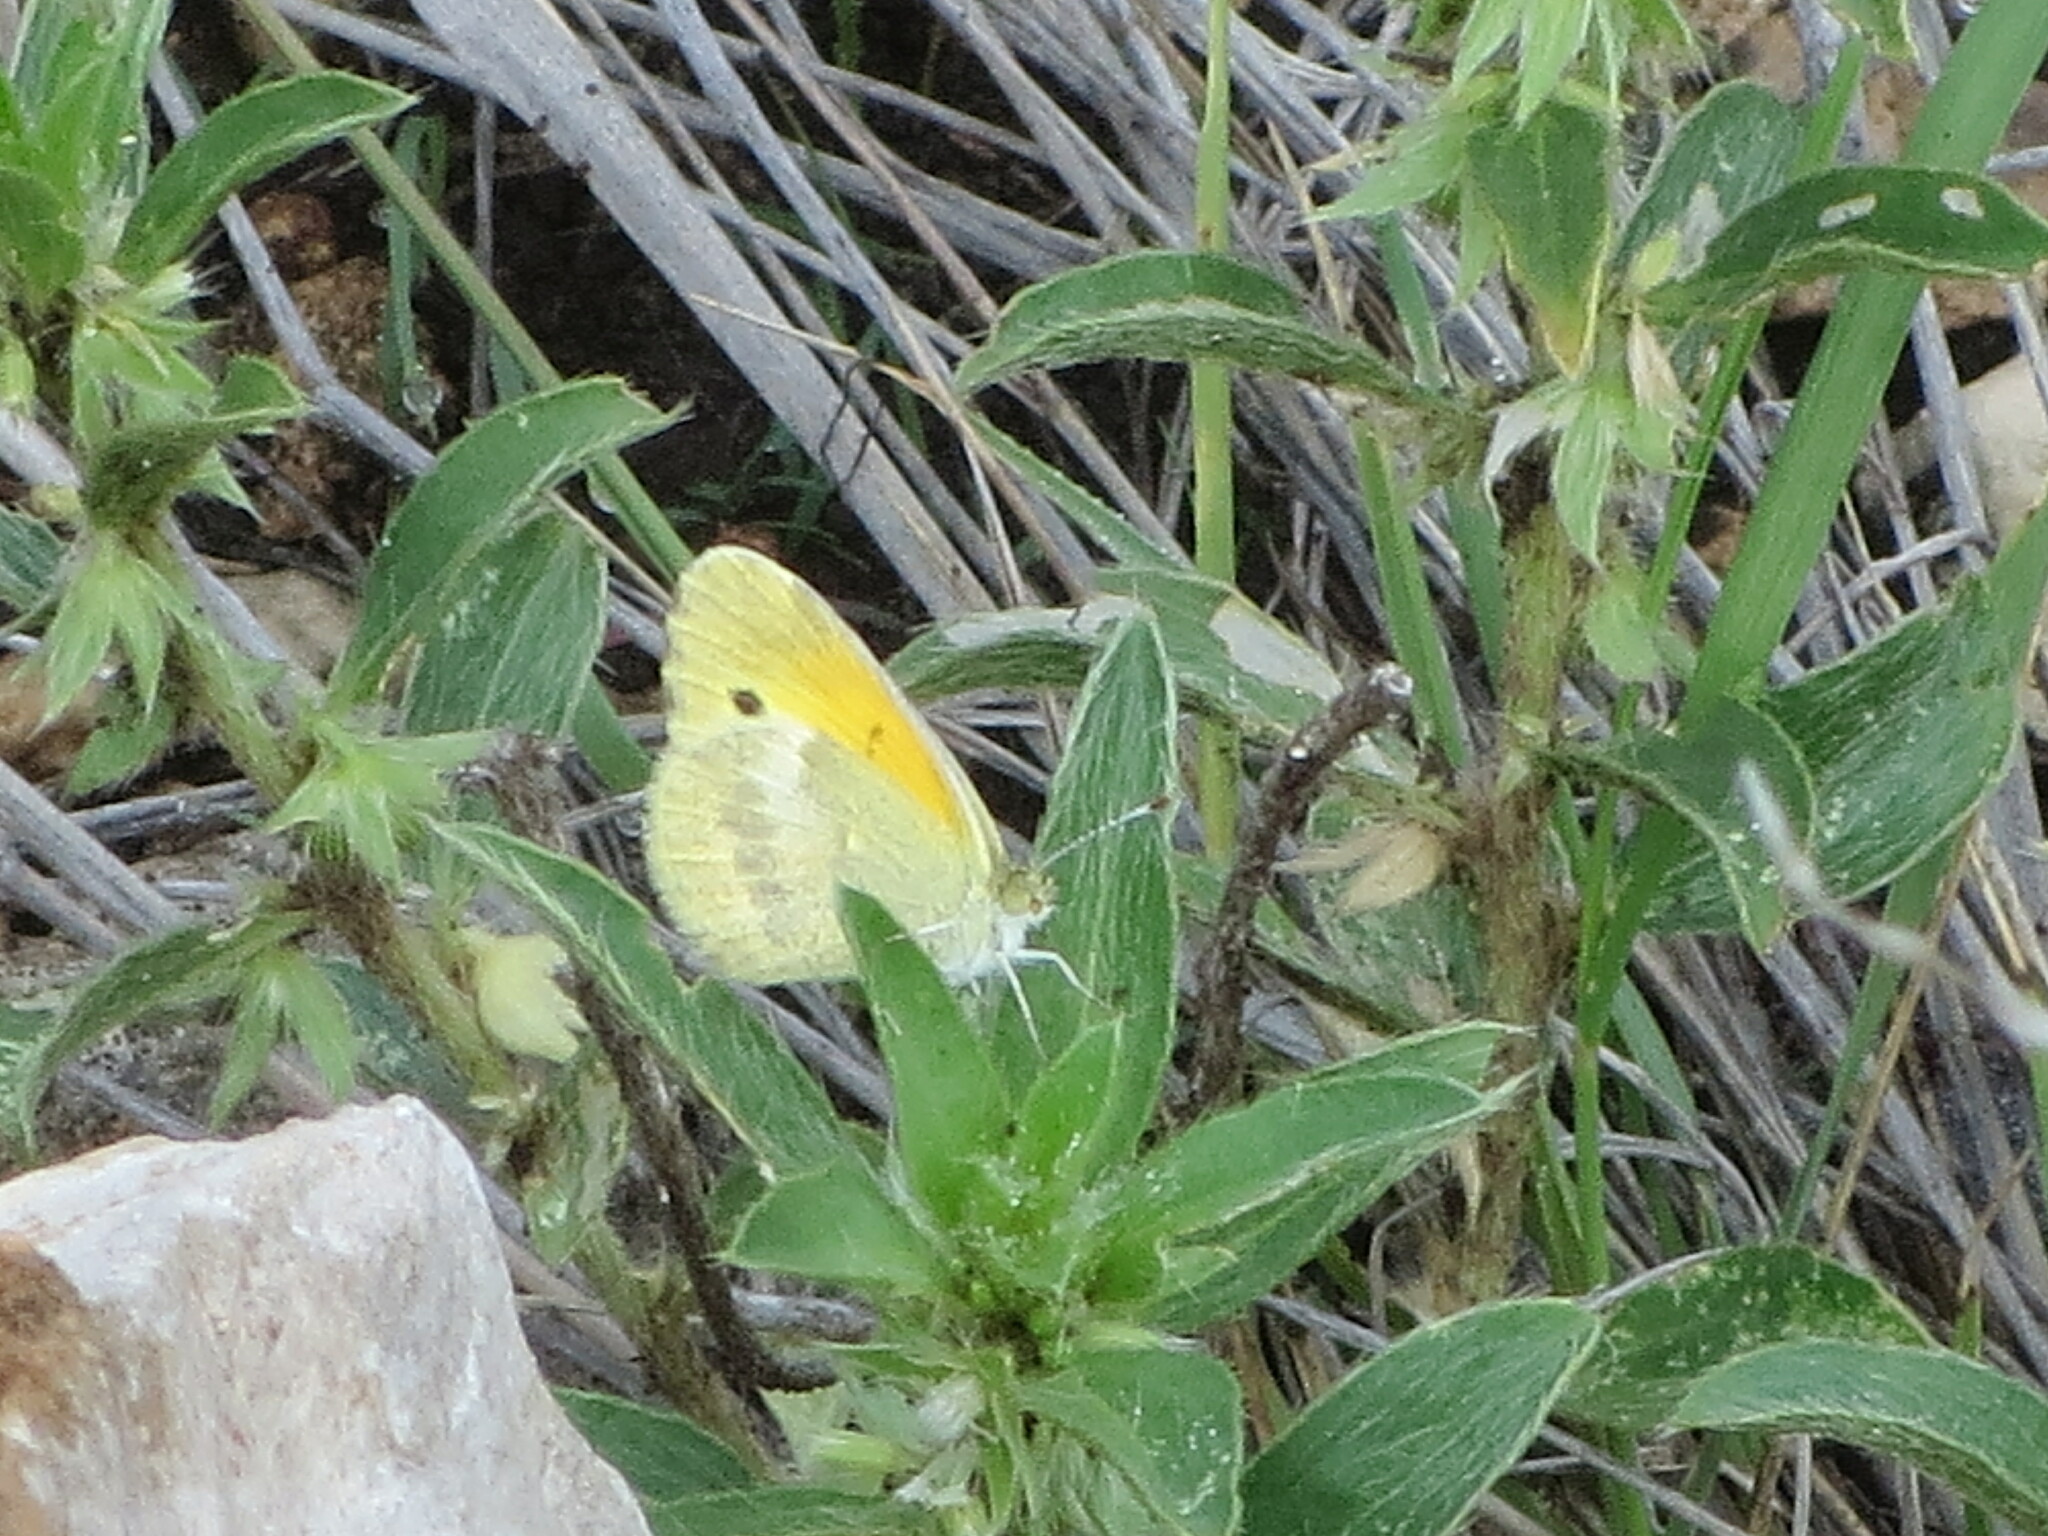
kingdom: Animalia
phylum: Arthropoda
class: Insecta
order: Lepidoptera
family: Pieridae
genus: Nathalis
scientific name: Nathalis iole
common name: Dainty sulphur
